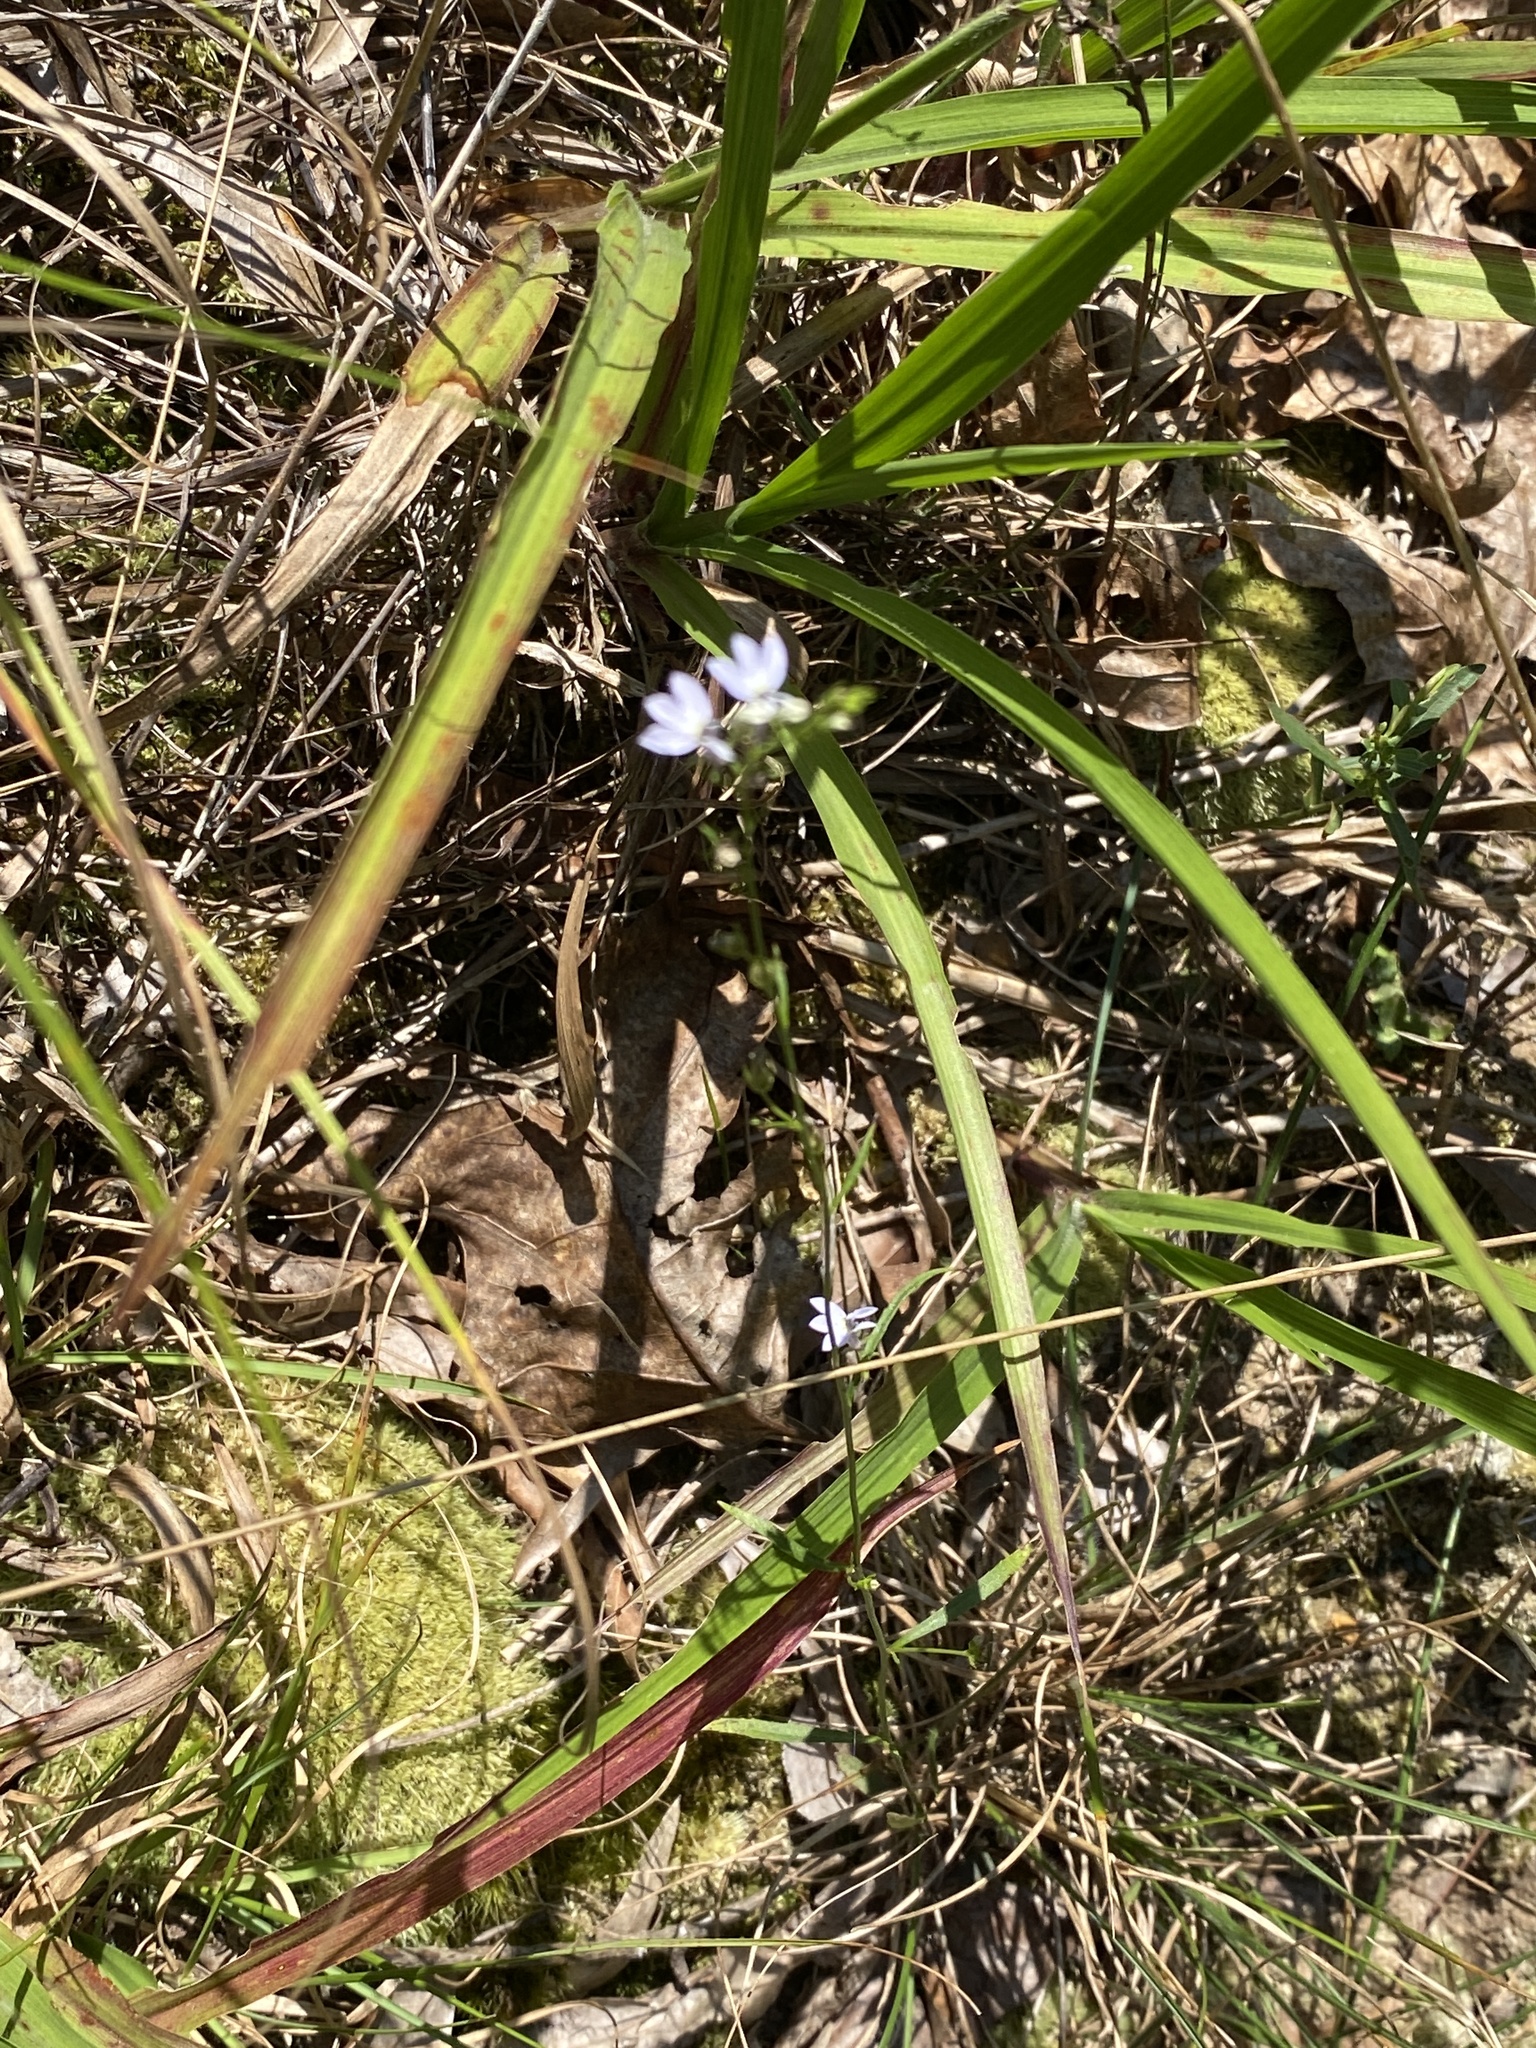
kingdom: Plantae
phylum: Tracheophyta
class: Magnoliopsida
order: Asterales
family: Campanulaceae
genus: Lobelia
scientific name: Lobelia nuttallii
